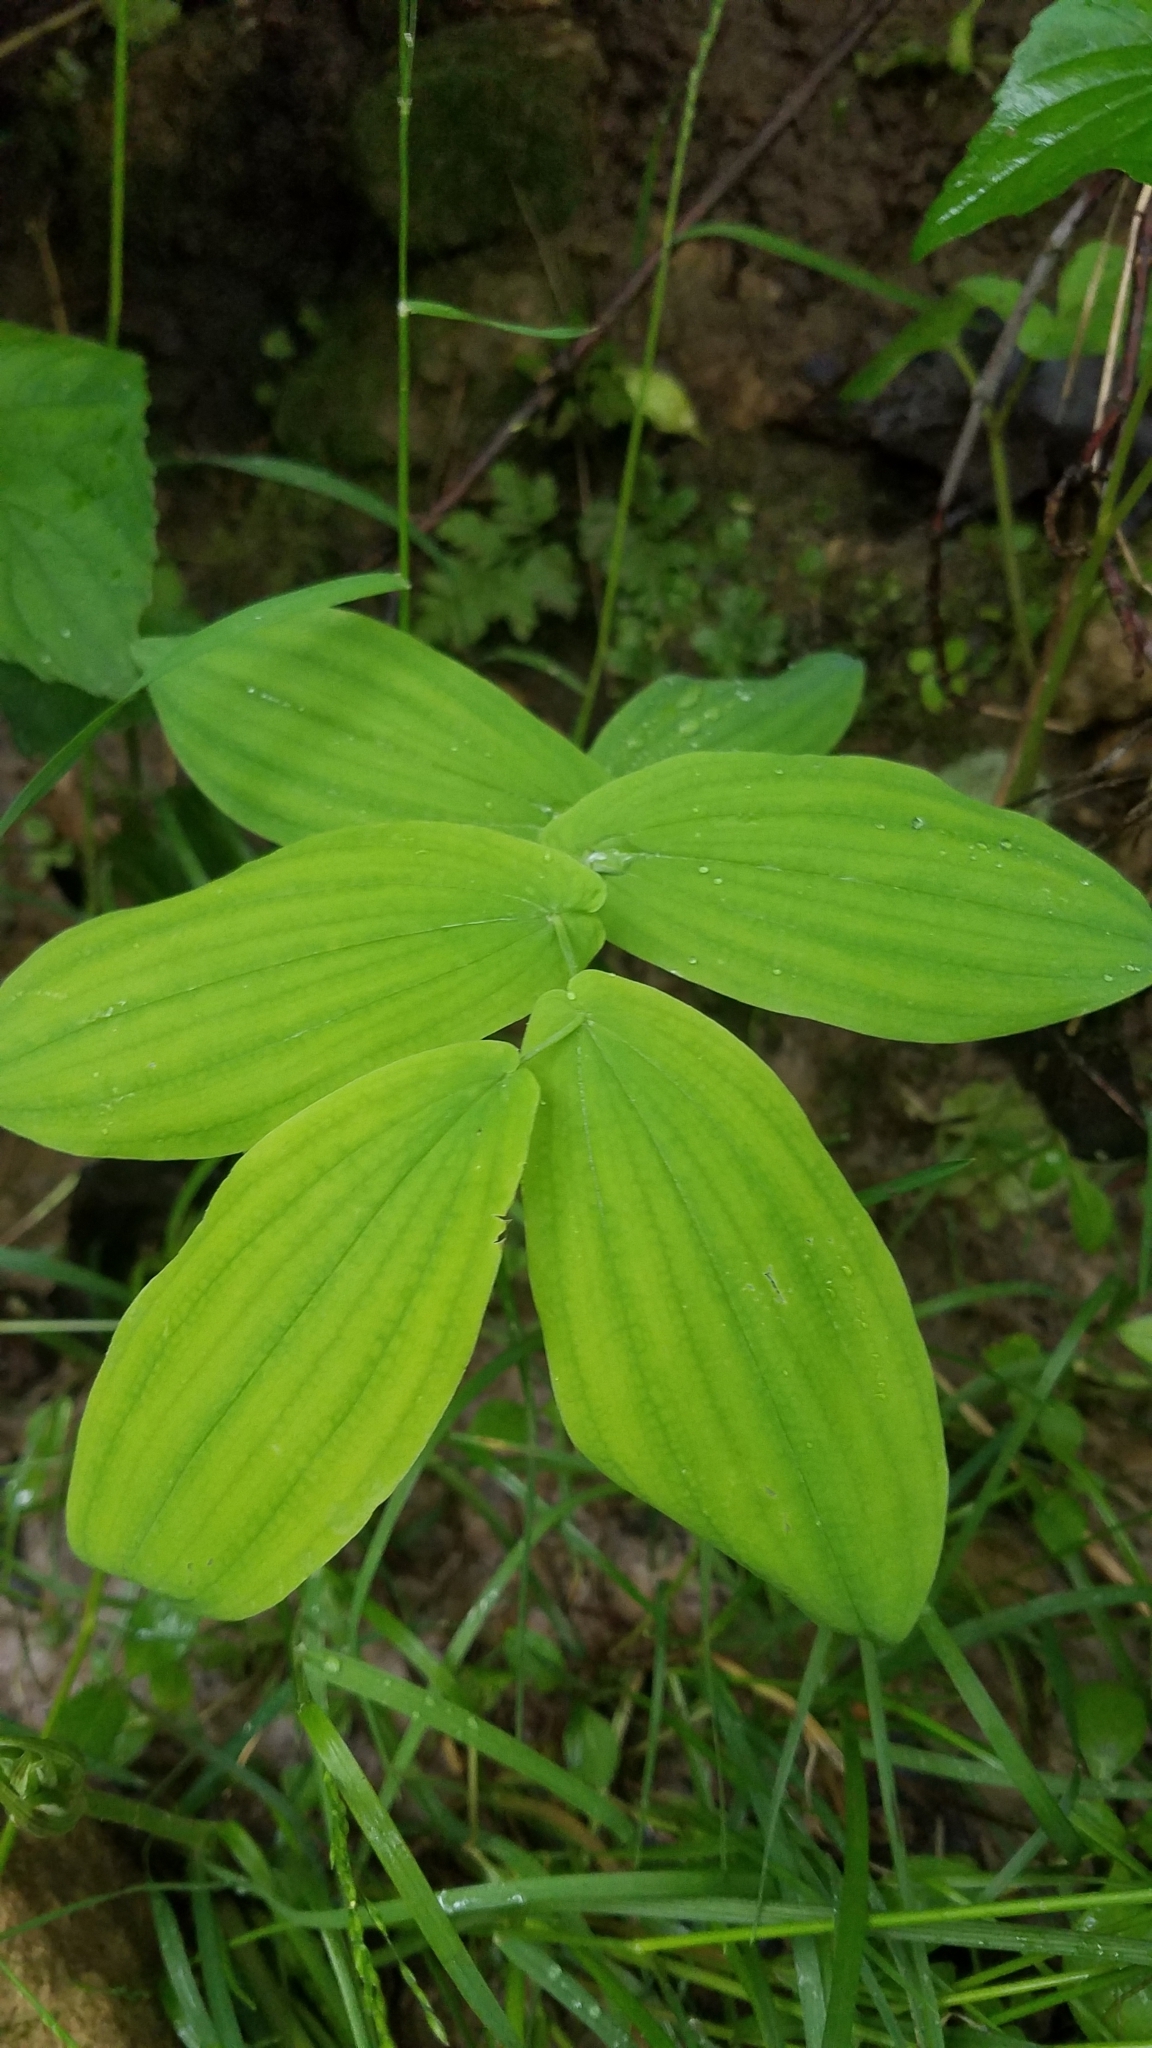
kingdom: Plantae
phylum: Tracheophyta
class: Liliopsida
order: Liliales
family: Colchicaceae
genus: Uvularia
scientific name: Uvularia grandiflora
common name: Bellwort
